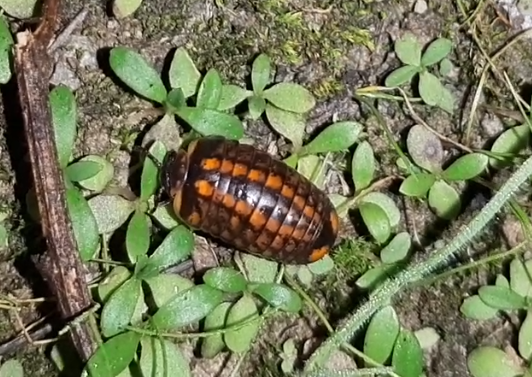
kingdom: Animalia
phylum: Arthropoda
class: Diplopoda
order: Glomerida
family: Glomeridae
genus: Glomeris
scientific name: Glomeris klugii
